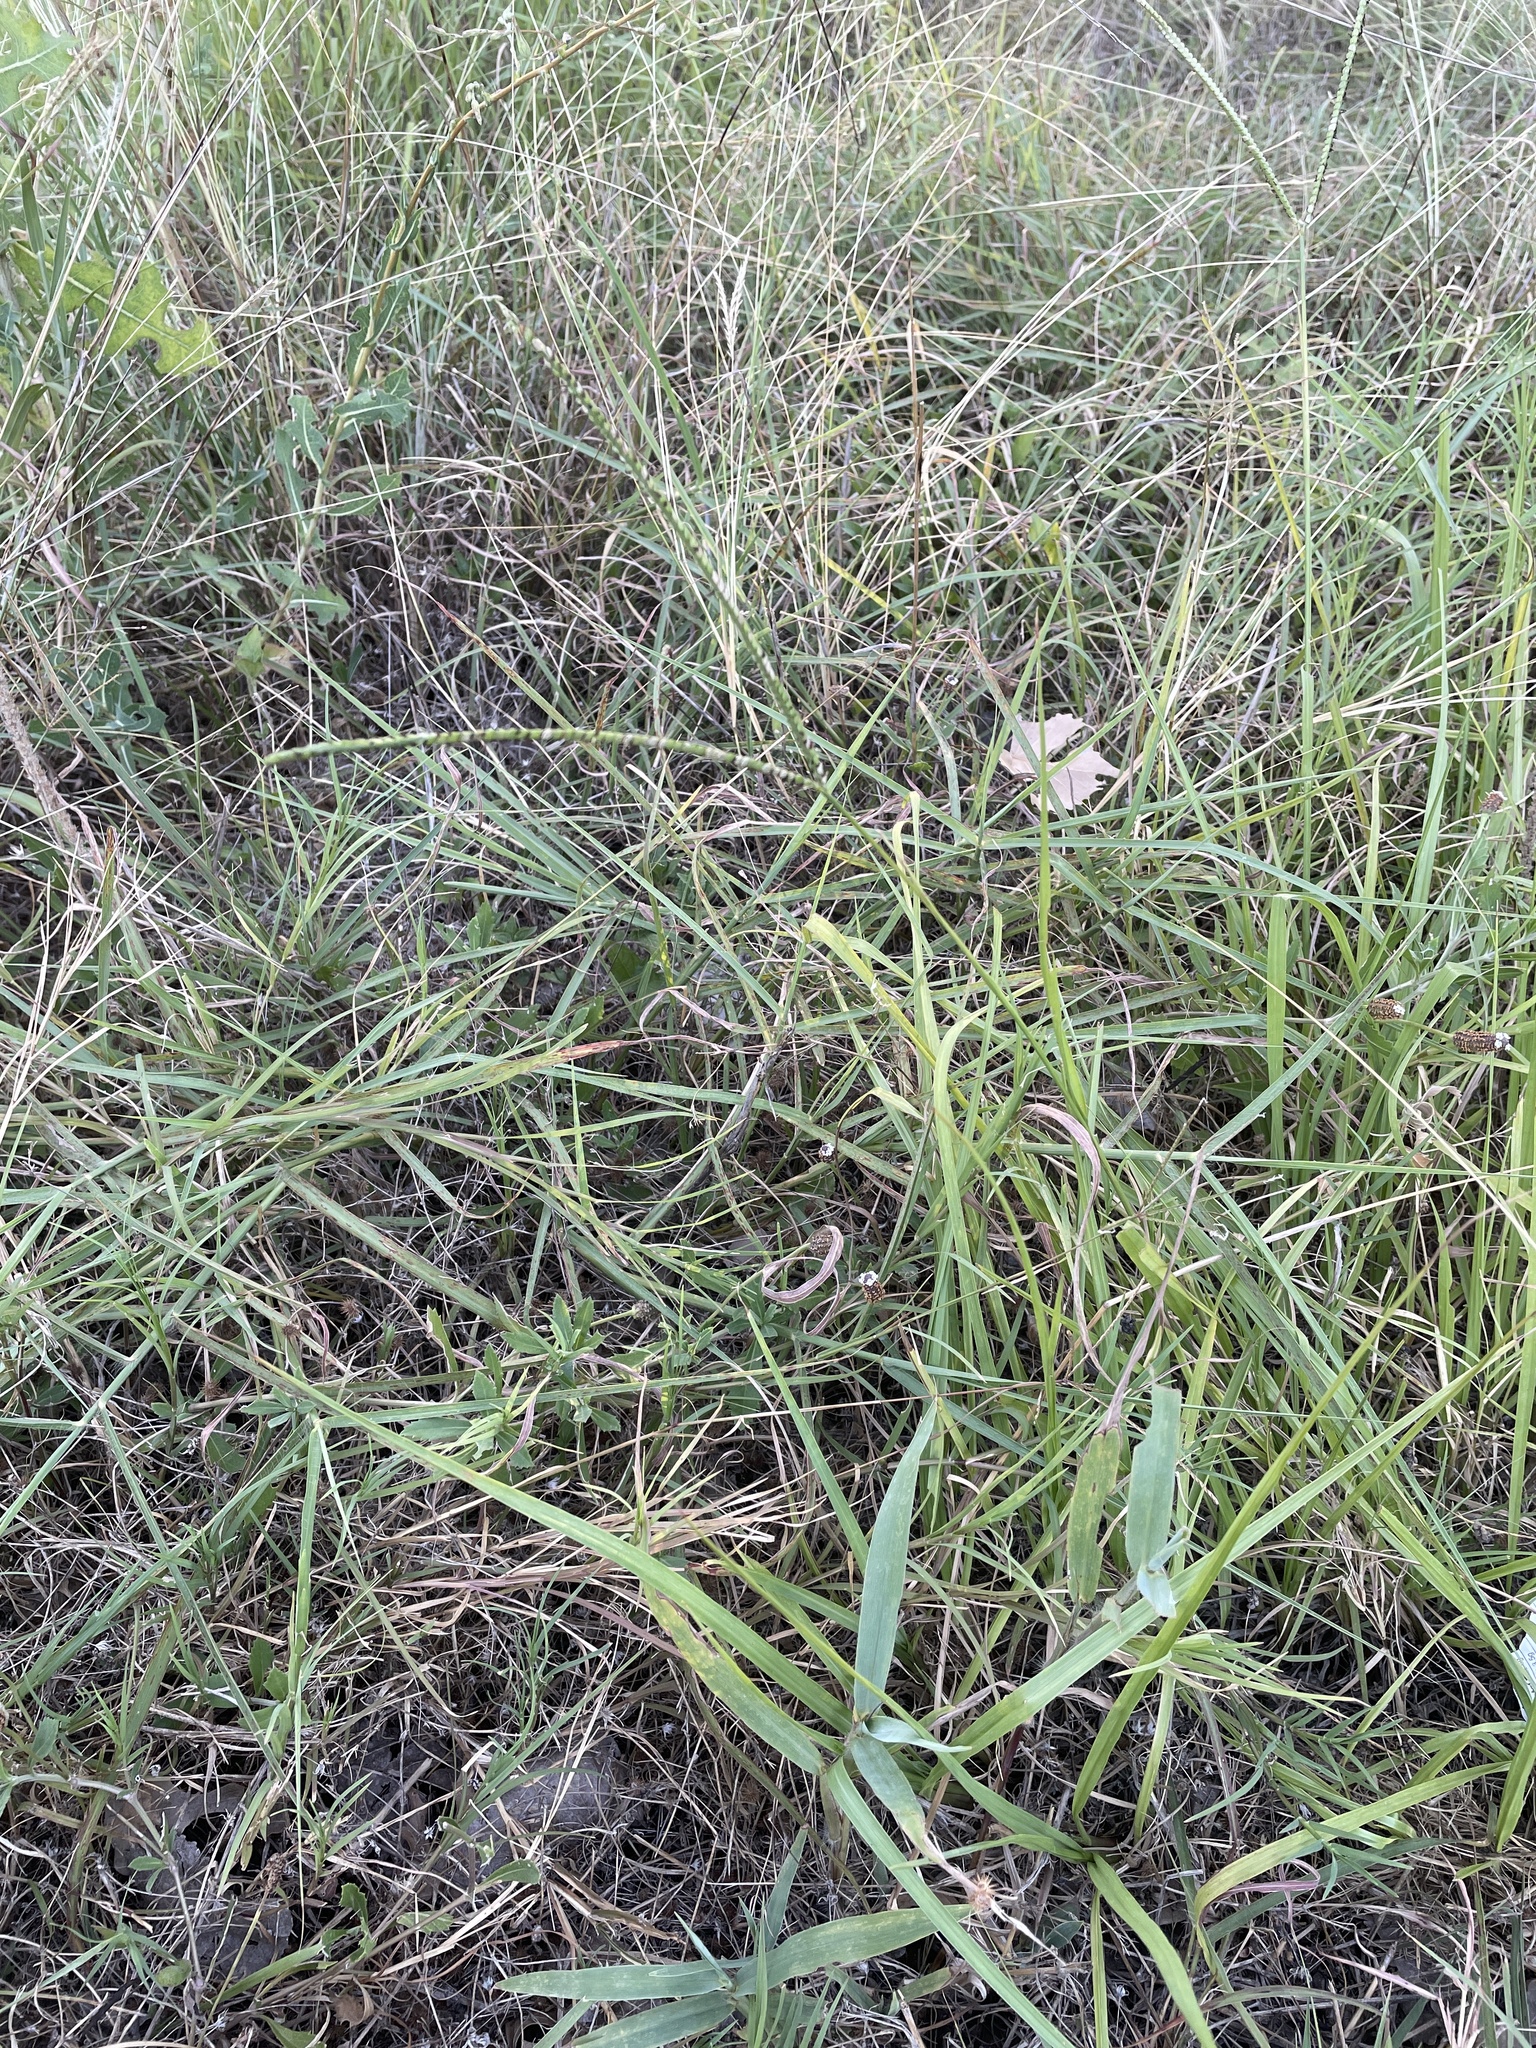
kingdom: Plantae
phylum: Tracheophyta
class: Liliopsida
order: Poales
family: Poaceae
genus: Paspalum
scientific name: Paspalum notatum
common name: Bahiagrass
